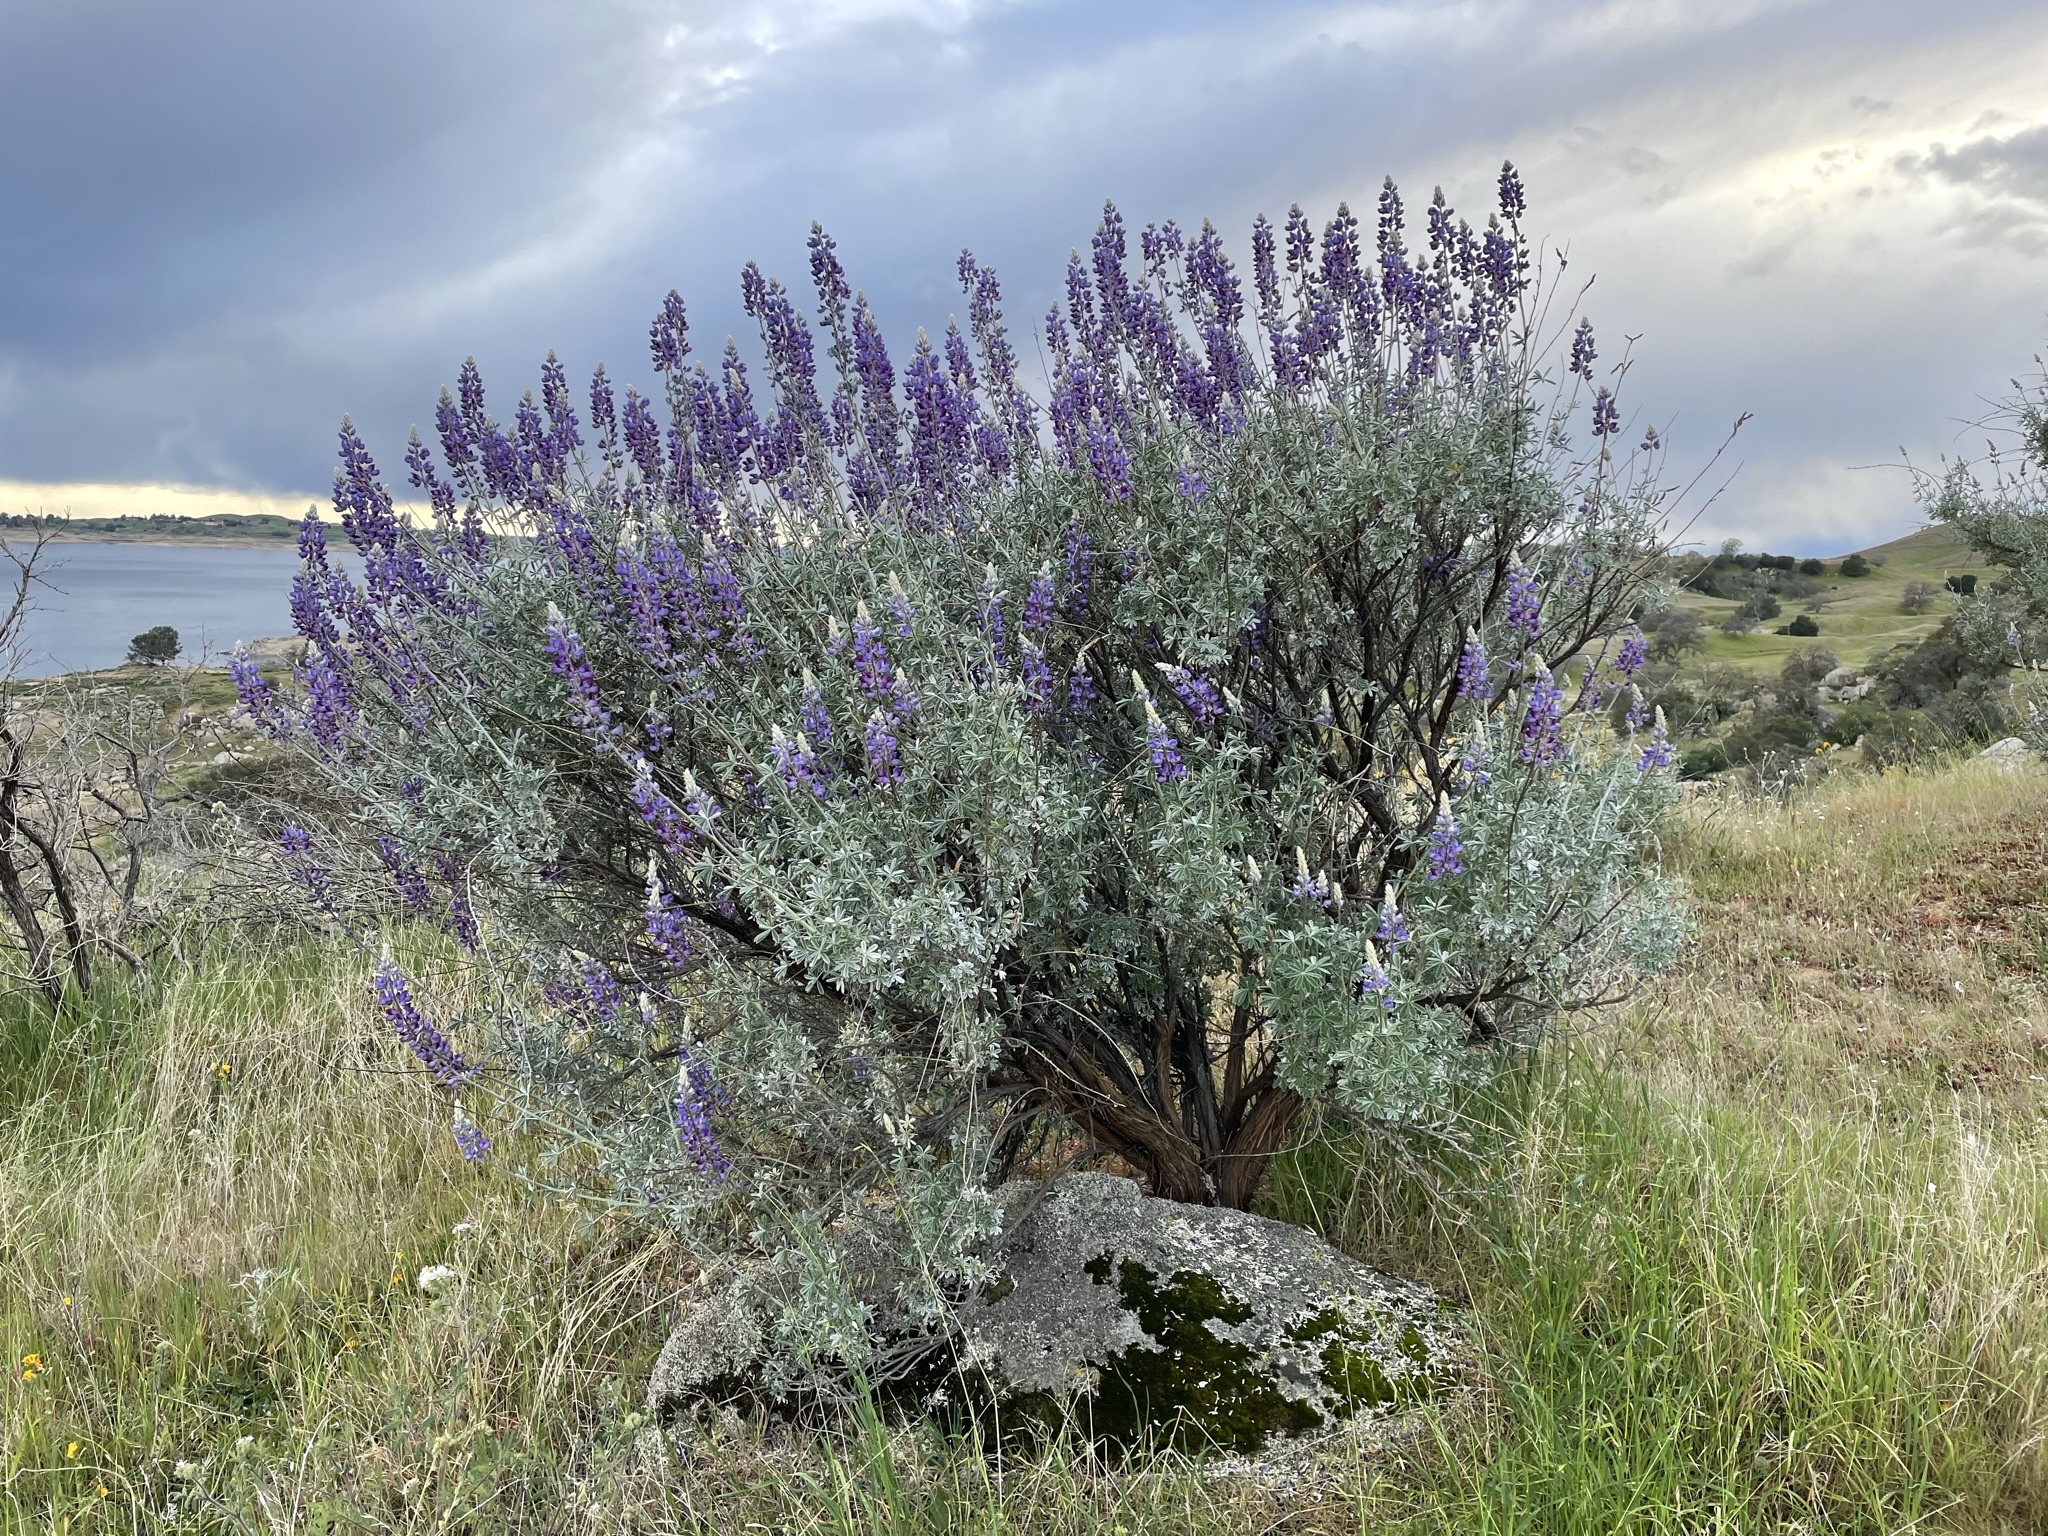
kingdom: Plantae
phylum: Tracheophyta
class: Magnoliopsida
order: Fabales
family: Fabaceae
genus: Lupinus
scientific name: Lupinus albifrons
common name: Foothill lupine
